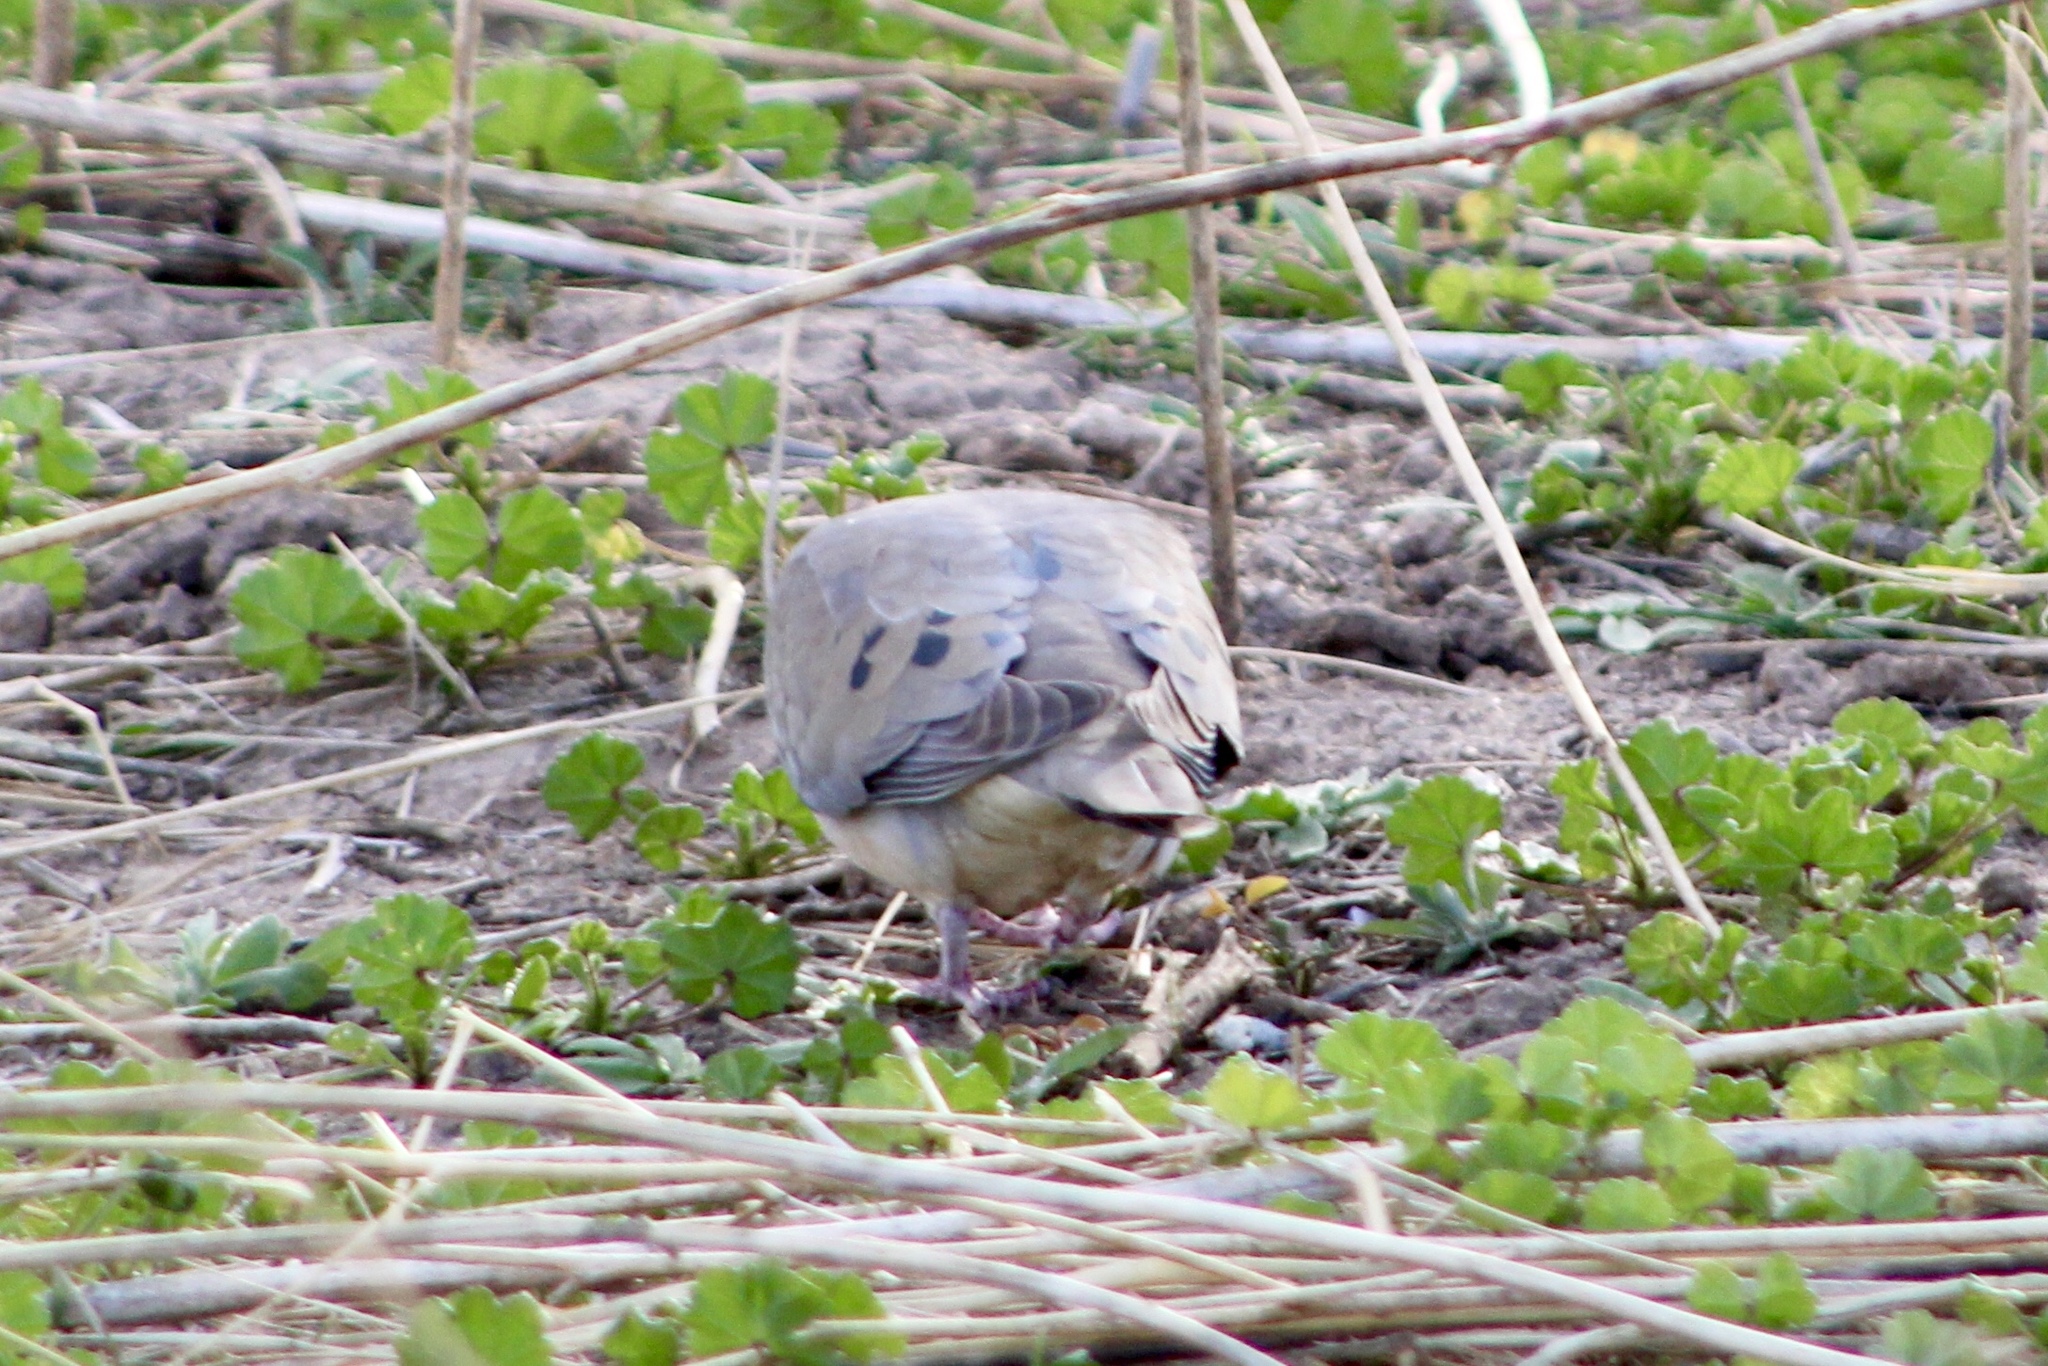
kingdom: Animalia
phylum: Chordata
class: Aves
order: Columbiformes
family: Columbidae
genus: Zenaida
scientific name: Zenaida macroura
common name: Mourning dove
